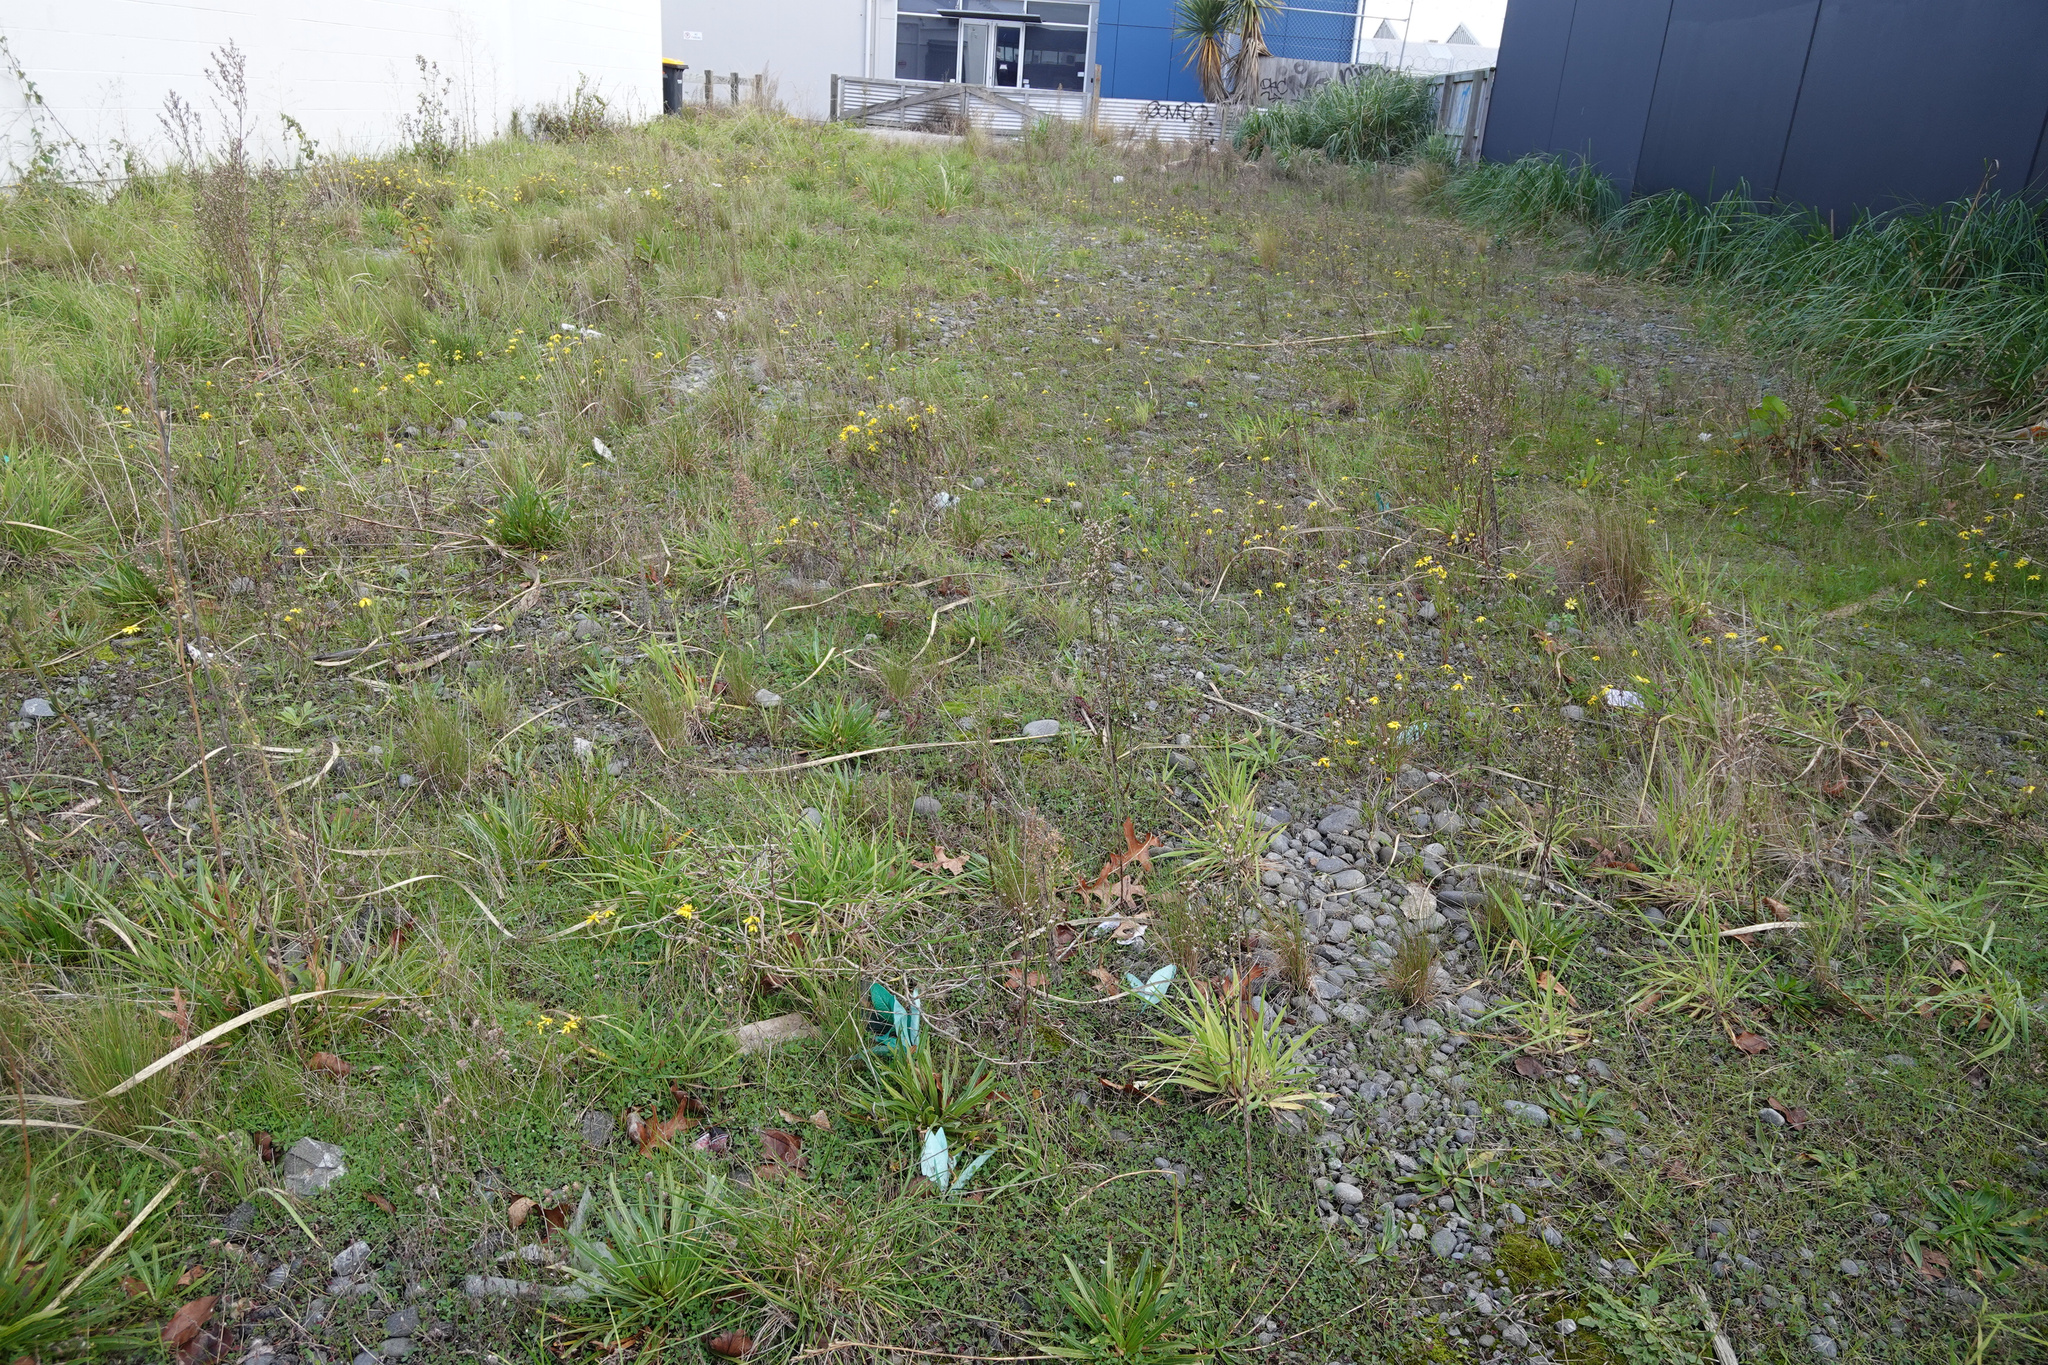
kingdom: Plantae
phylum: Tracheophyta
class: Magnoliopsida
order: Asterales
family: Asteraceae
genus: Senecio
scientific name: Senecio skirrhodon
